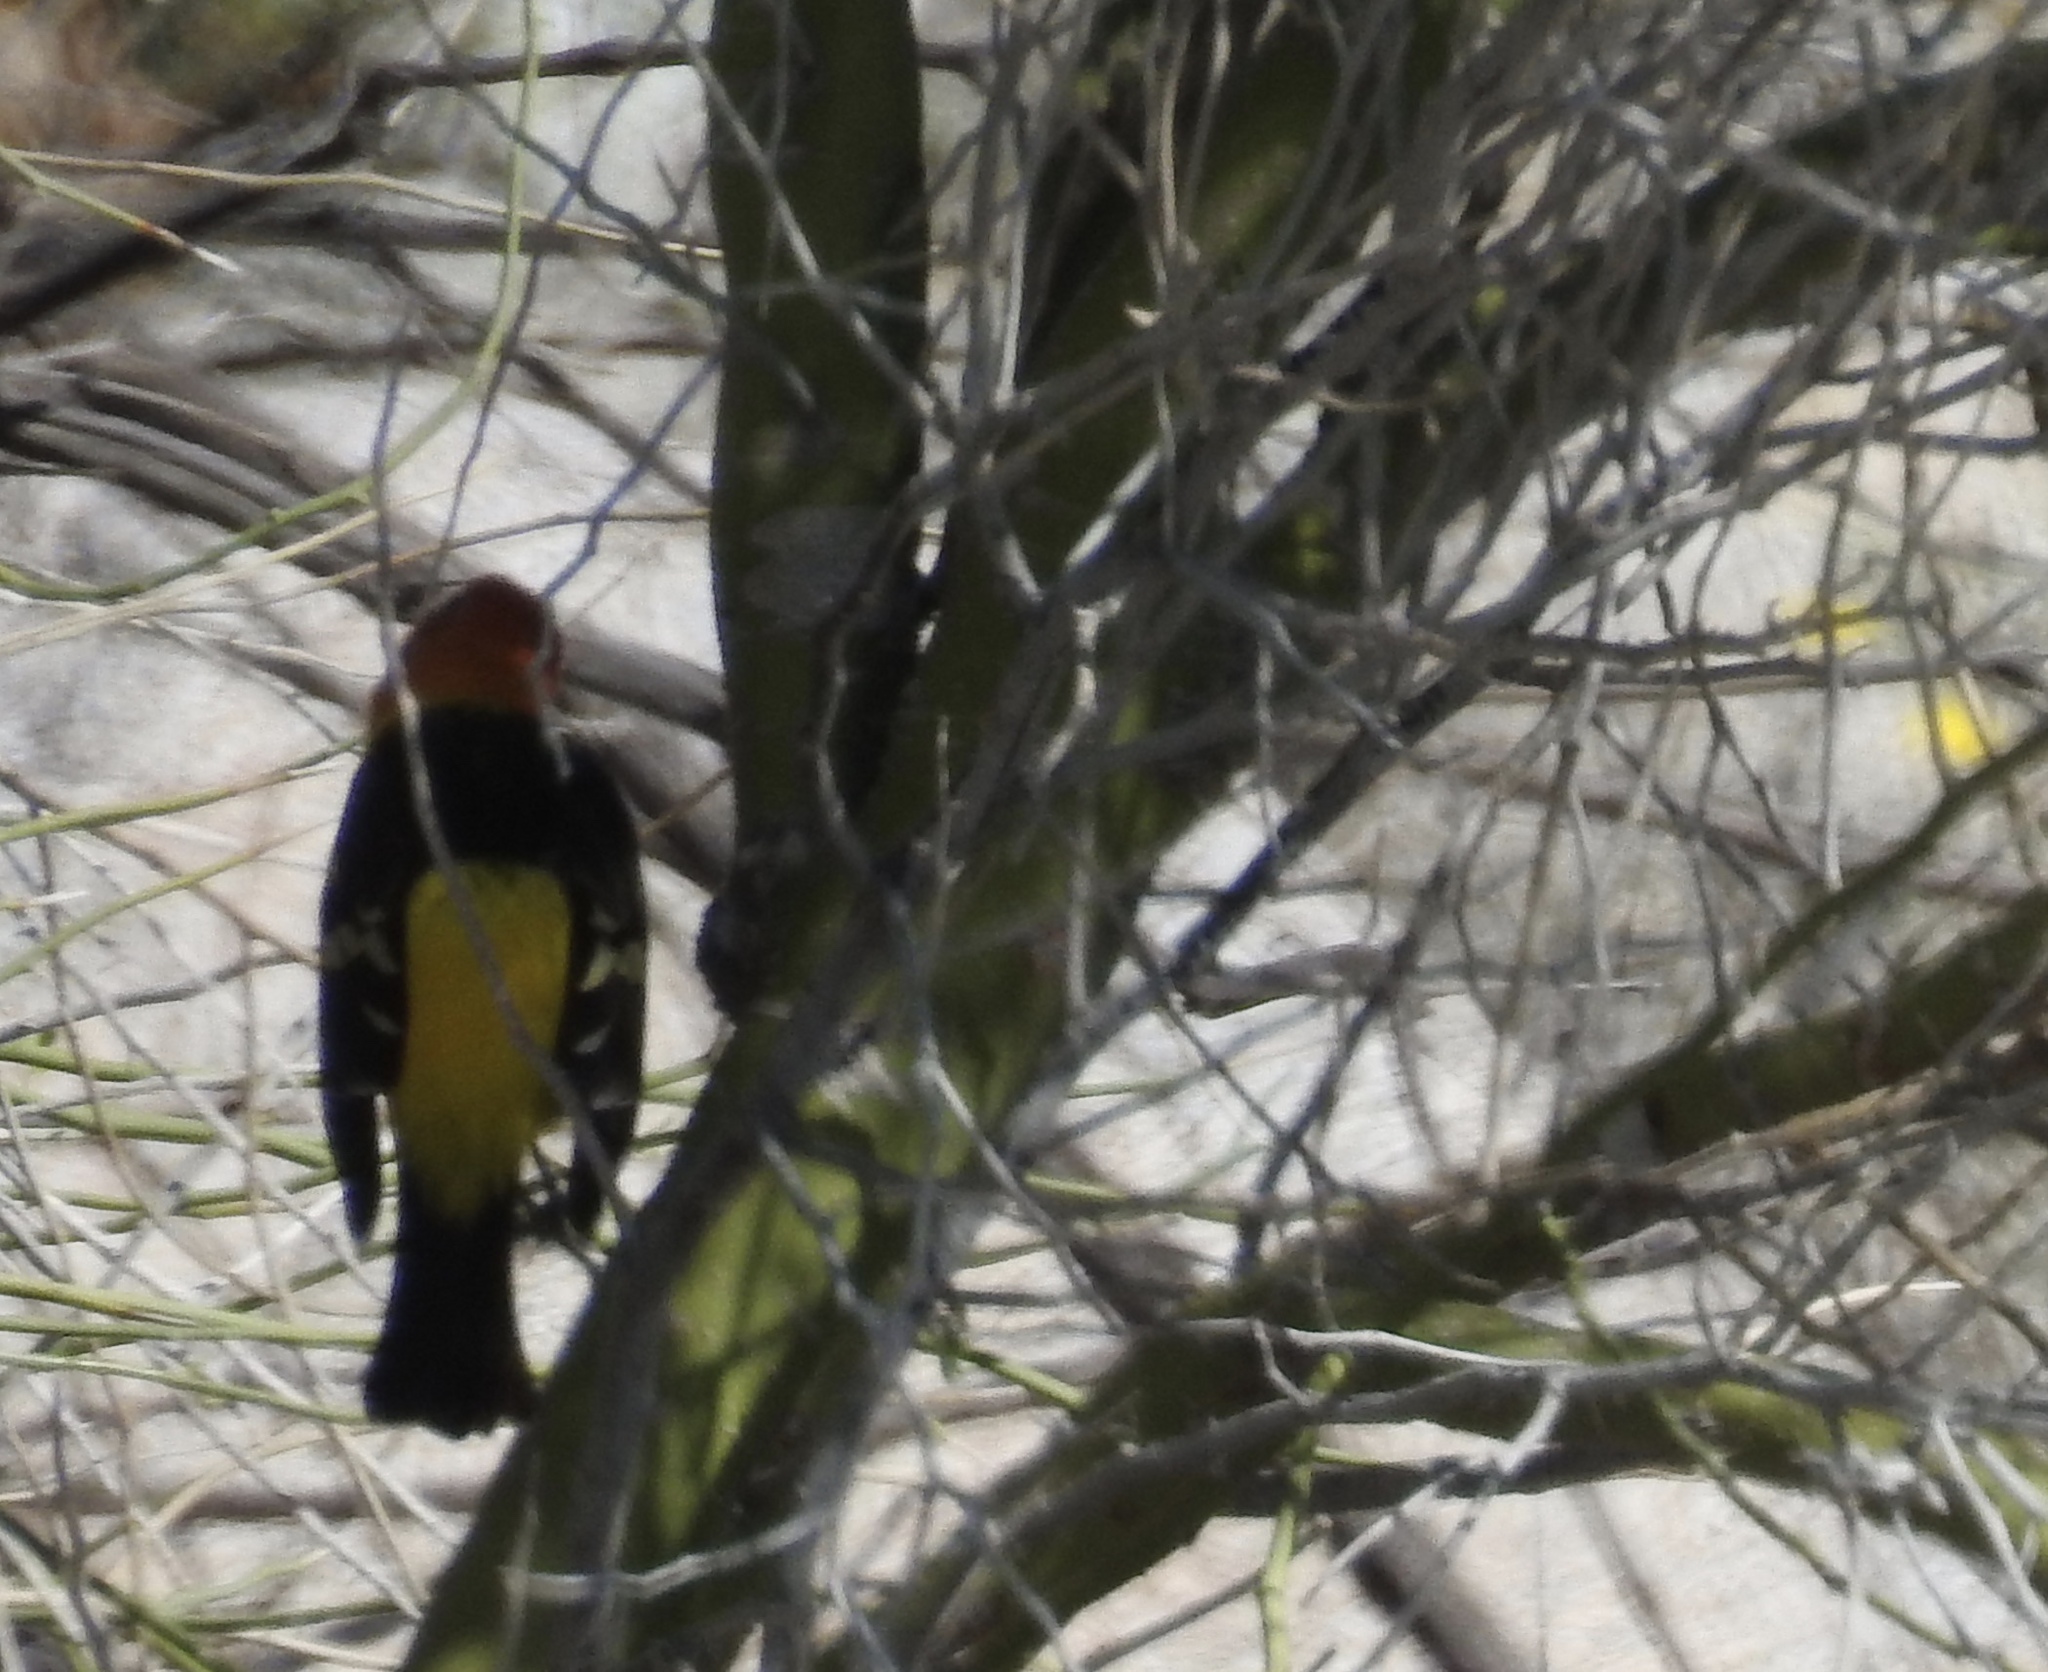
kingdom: Animalia
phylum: Chordata
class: Aves
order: Passeriformes
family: Cardinalidae
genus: Piranga
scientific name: Piranga ludoviciana
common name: Western tanager
